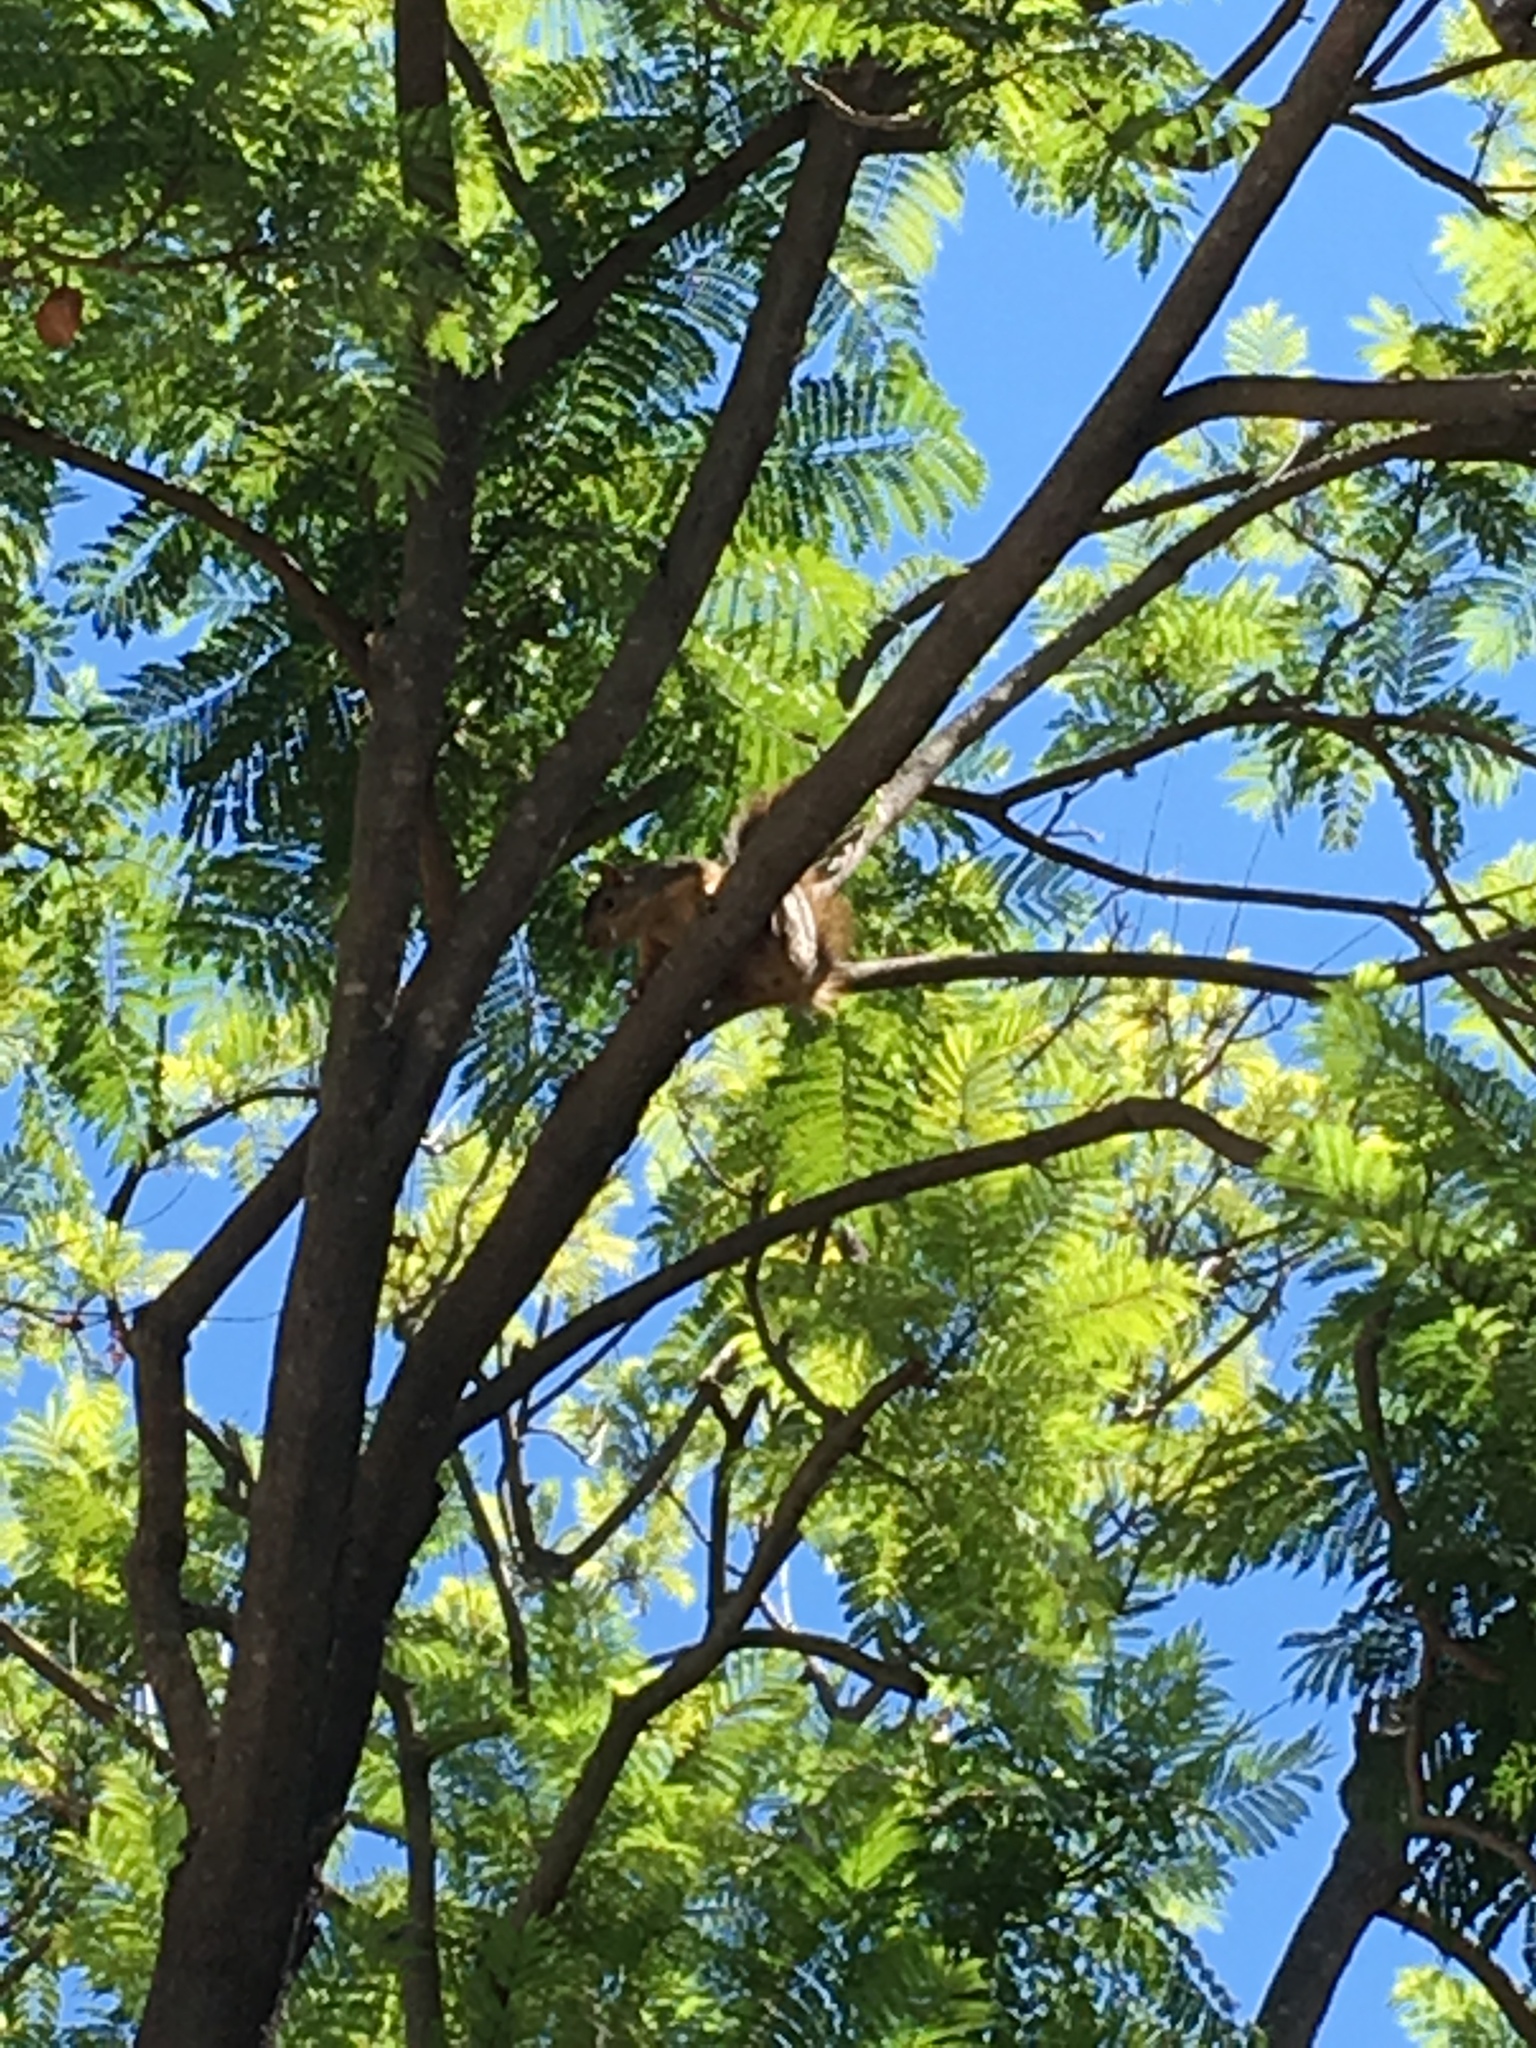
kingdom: Animalia
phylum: Chordata
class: Mammalia
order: Rodentia
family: Sciuridae
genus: Sciurus
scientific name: Sciurus niger
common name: Fox squirrel
